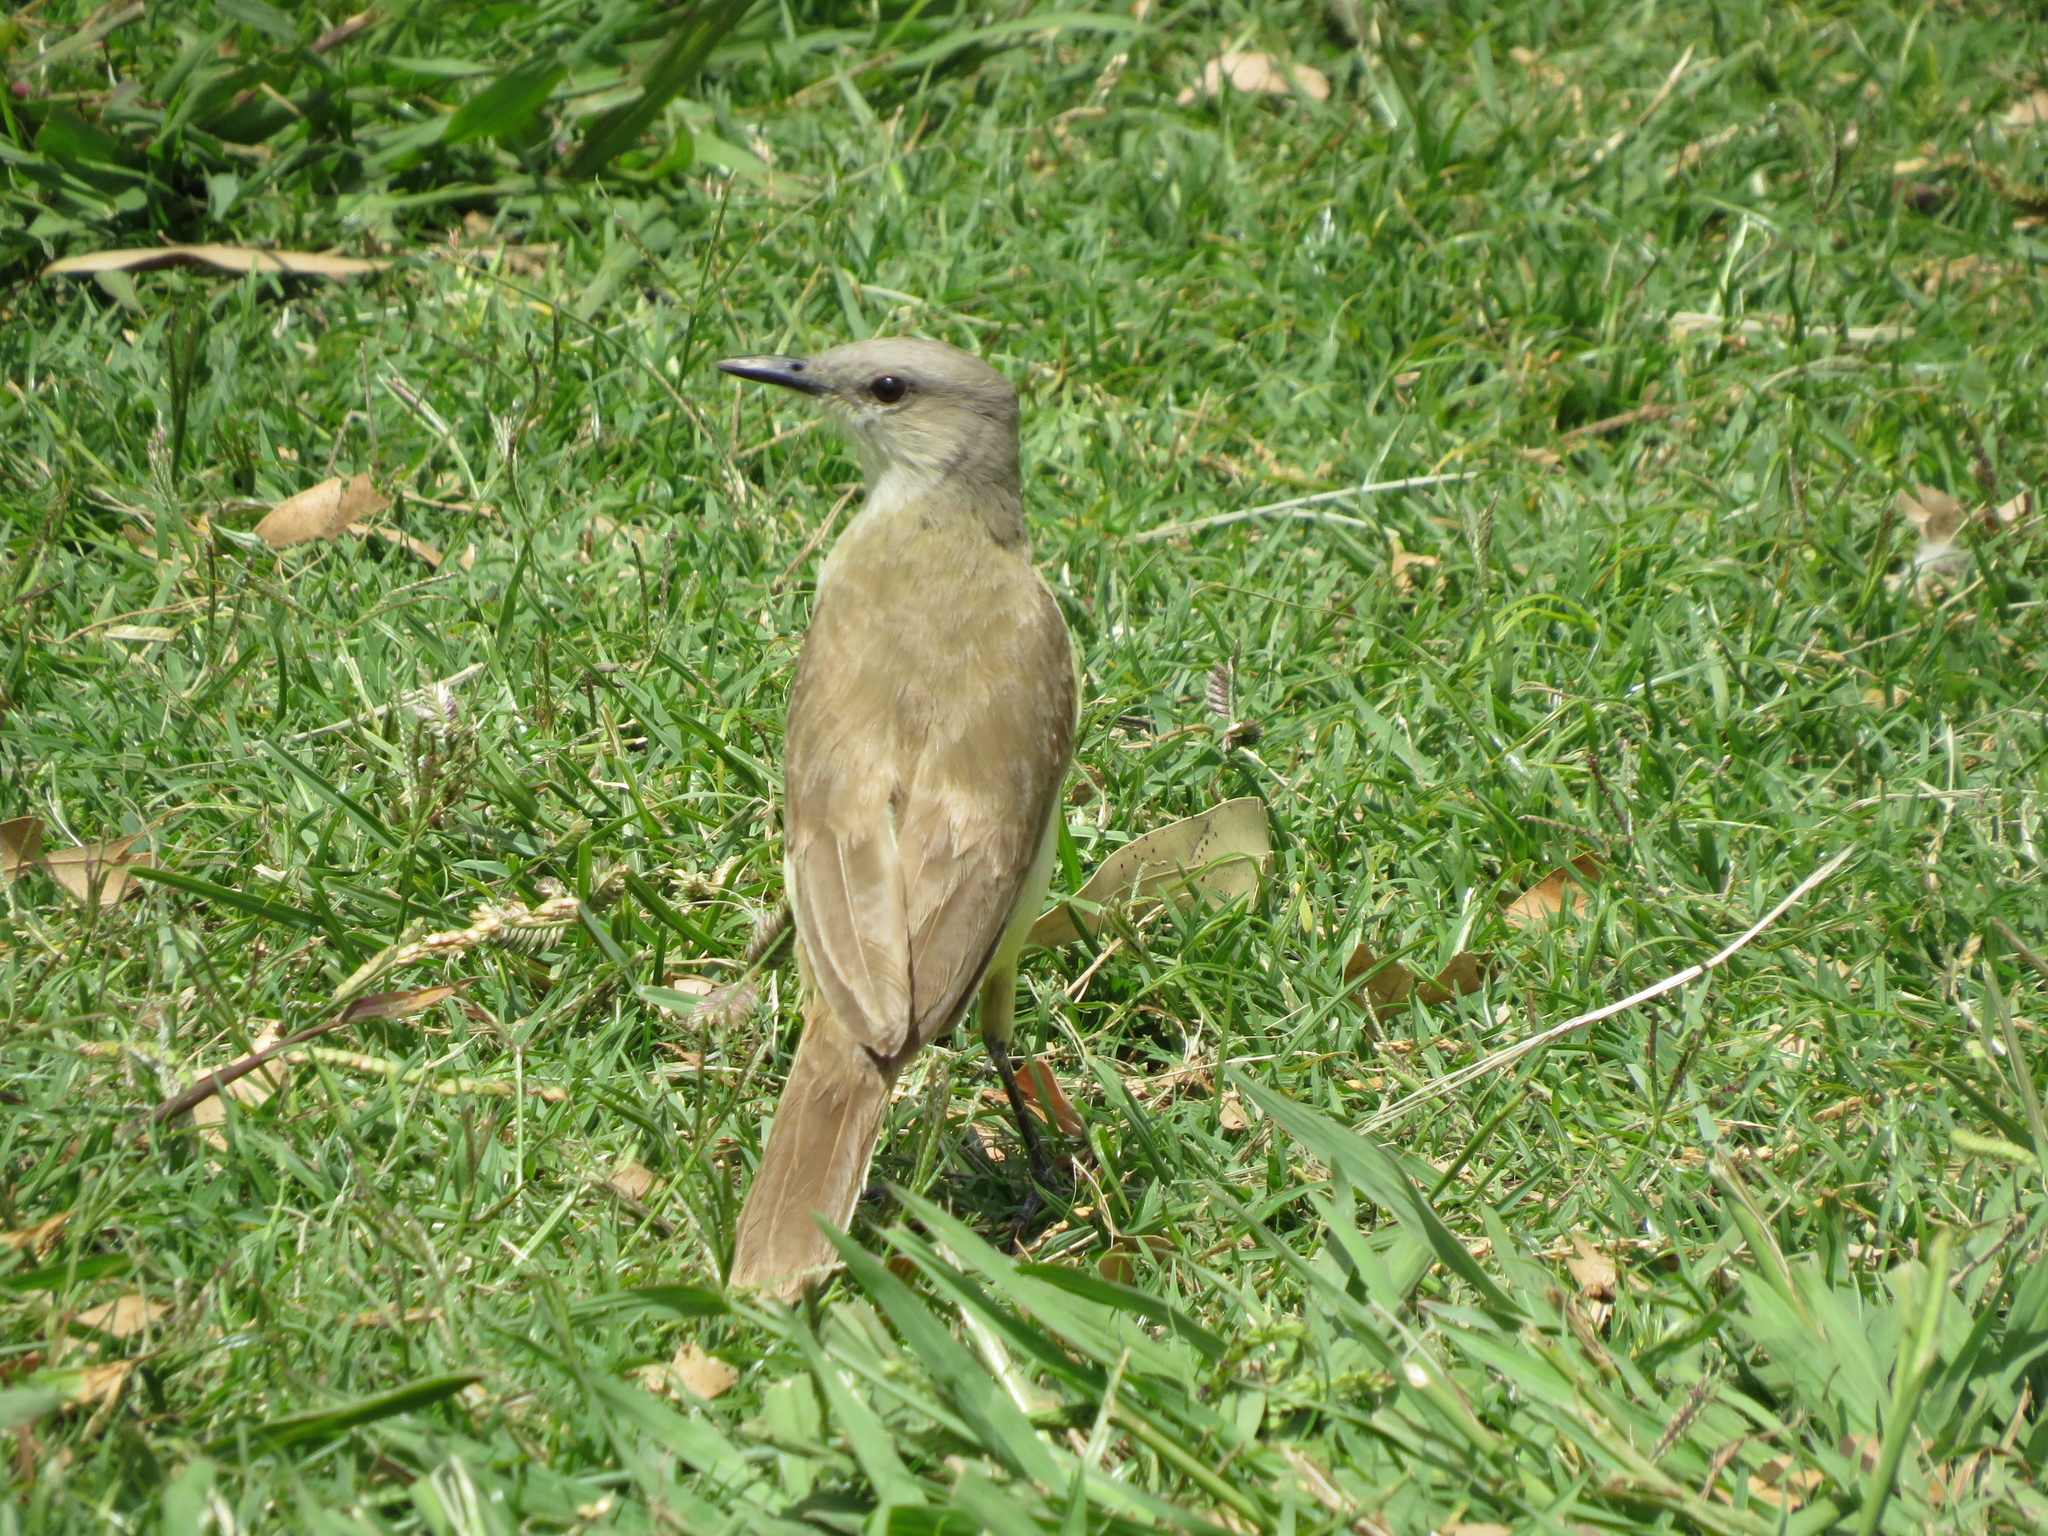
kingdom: Animalia
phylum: Chordata
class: Aves
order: Passeriformes
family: Tyrannidae
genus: Machetornis
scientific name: Machetornis rixosa
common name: Cattle tyrant
